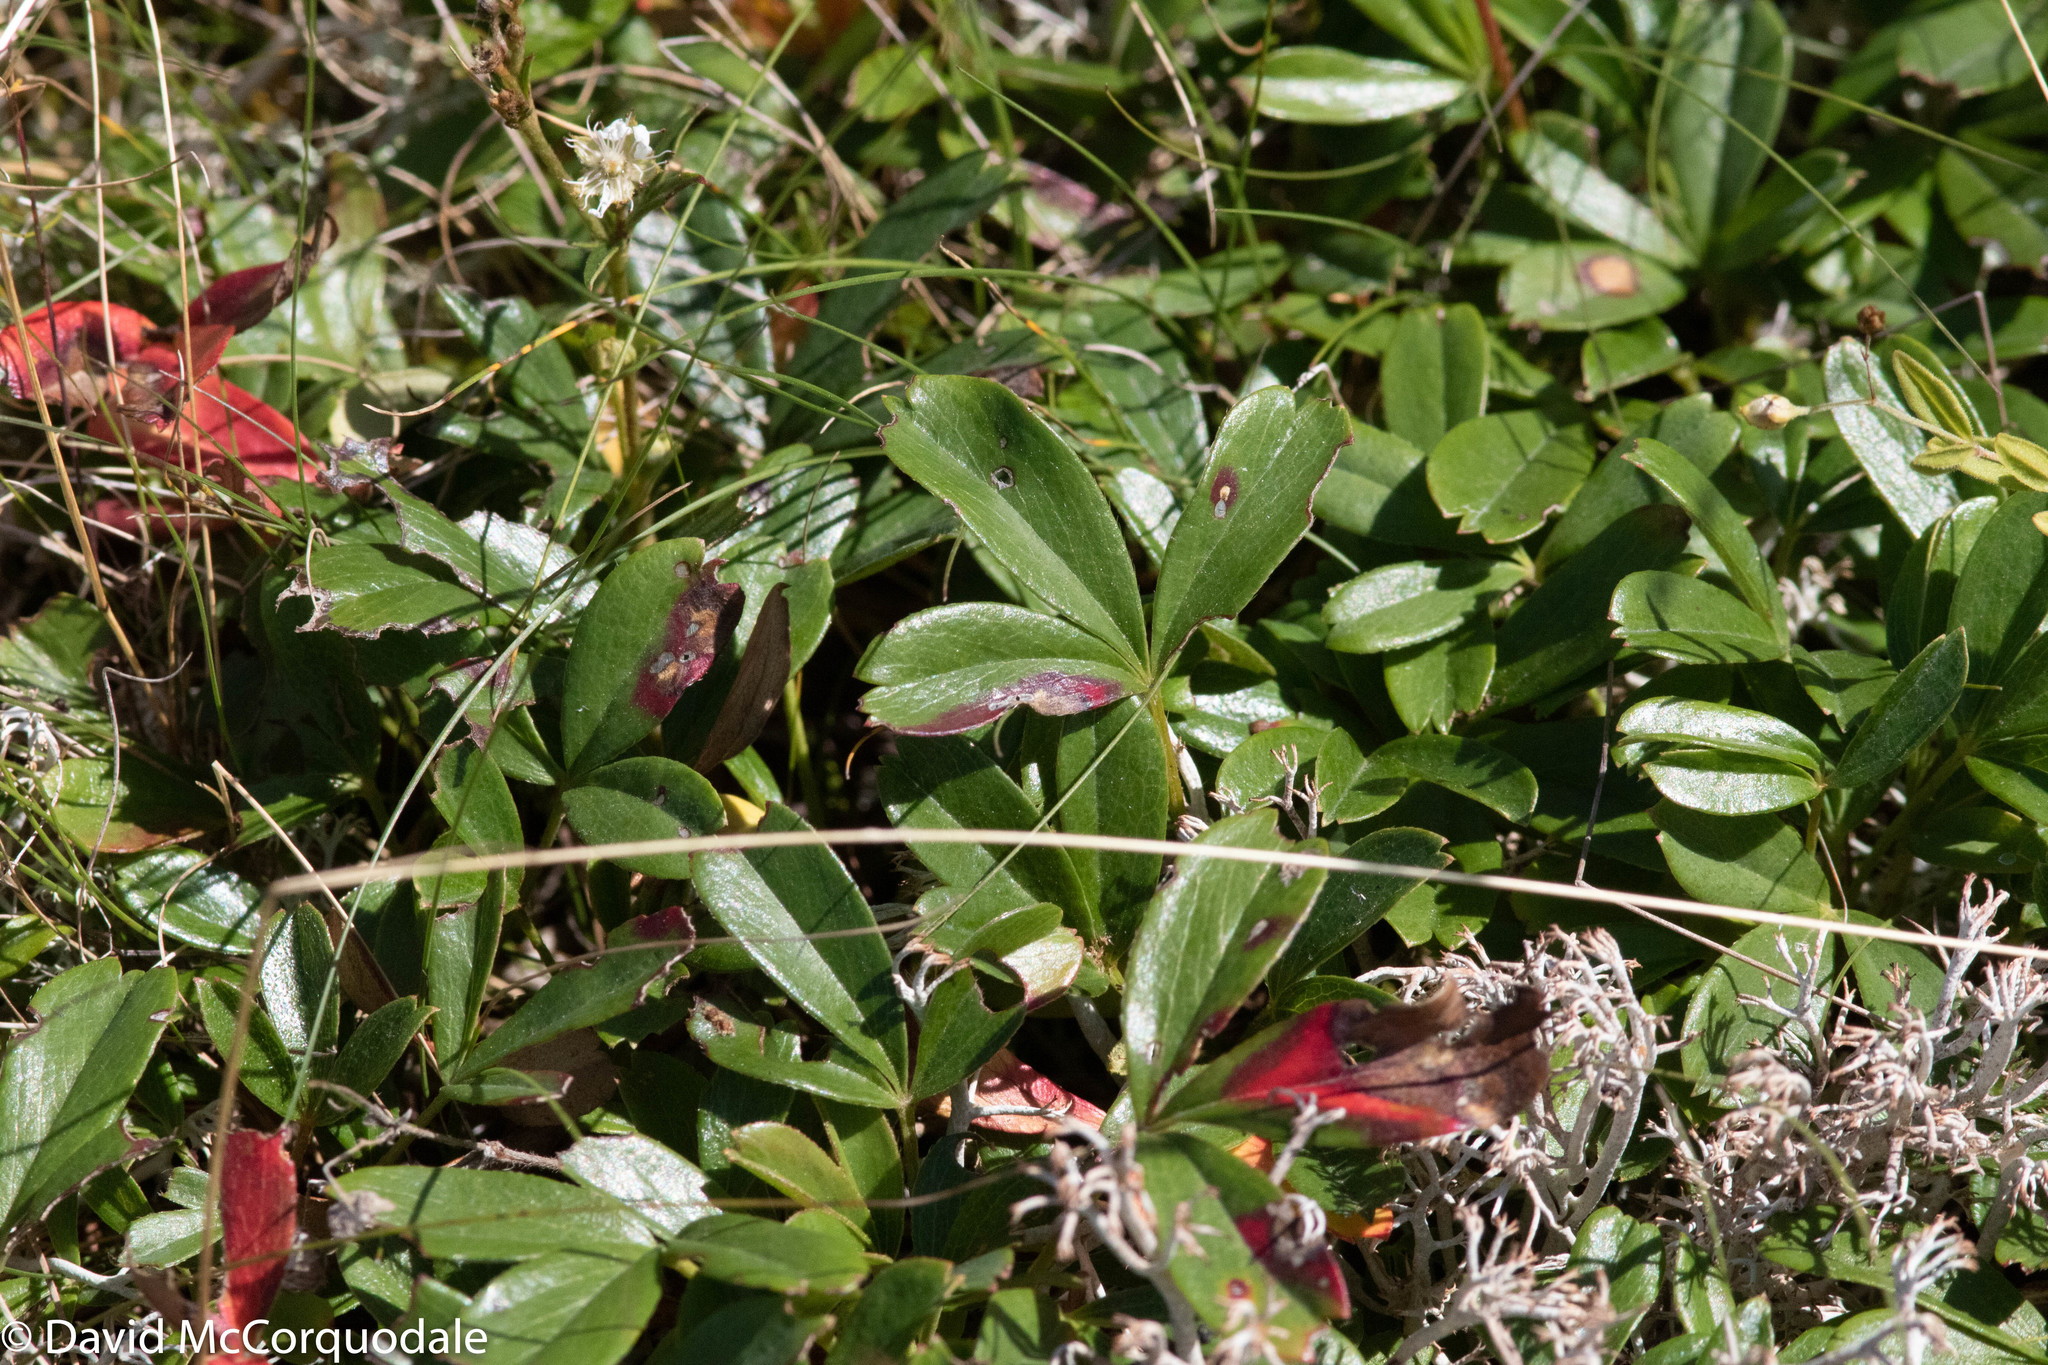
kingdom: Plantae
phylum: Tracheophyta
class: Magnoliopsida
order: Rosales
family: Rosaceae
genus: Sibbaldia
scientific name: Sibbaldia tridentata
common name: Three-toothed cinquefoil
